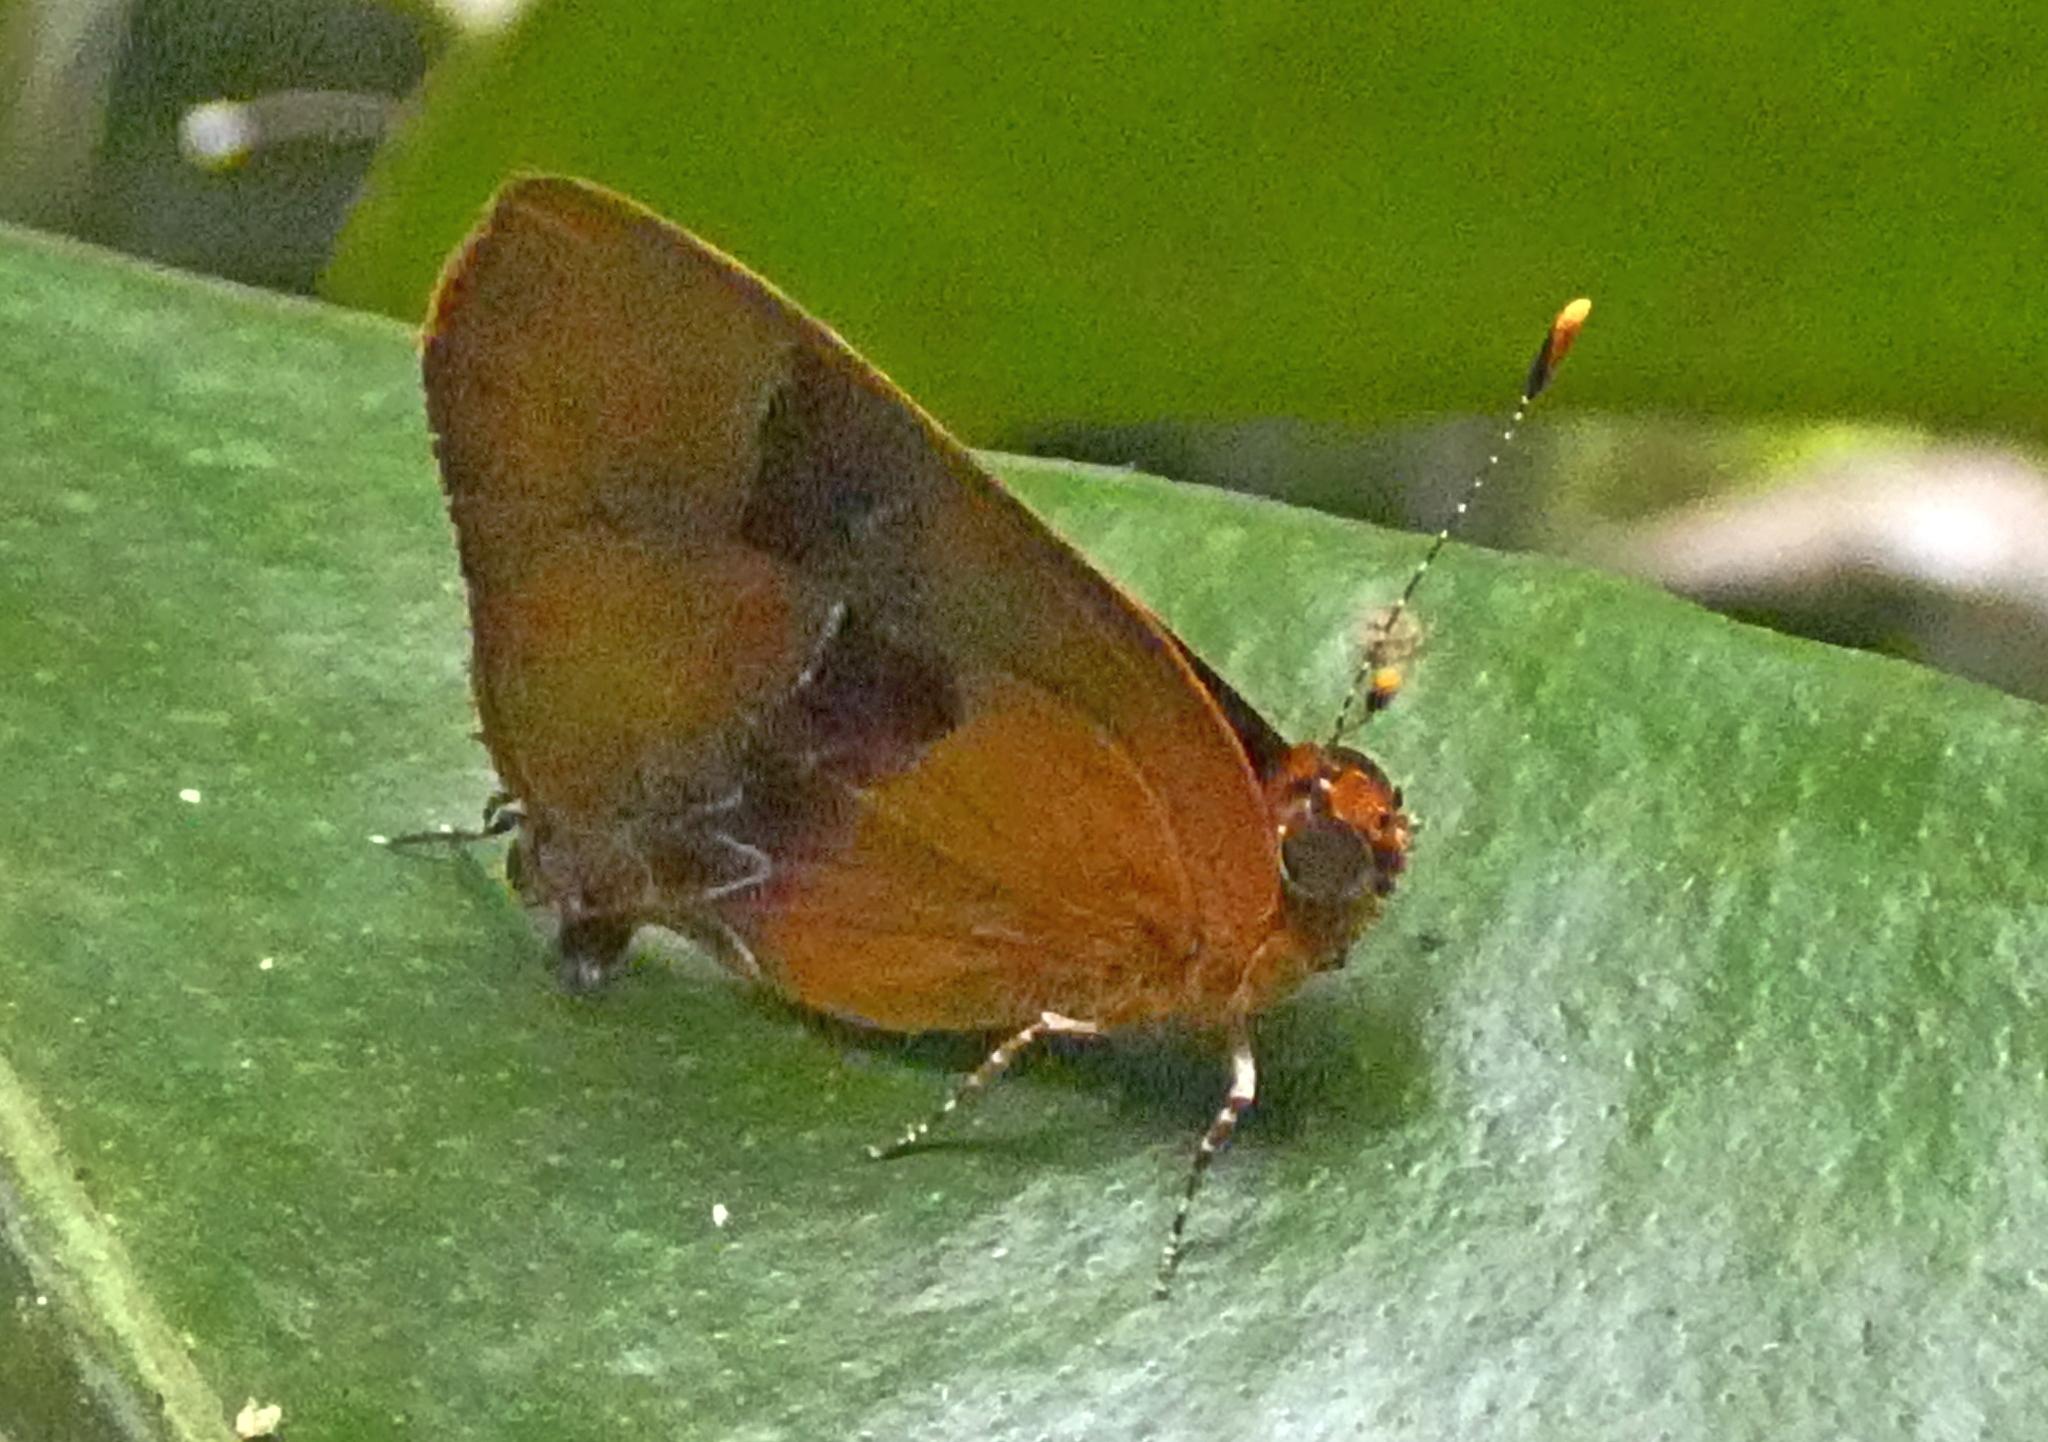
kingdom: Animalia
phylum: Arthropoda
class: Insecta
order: Lepidoptera
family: Lycaenidae
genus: Thecla
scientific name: Thecla demonassa
